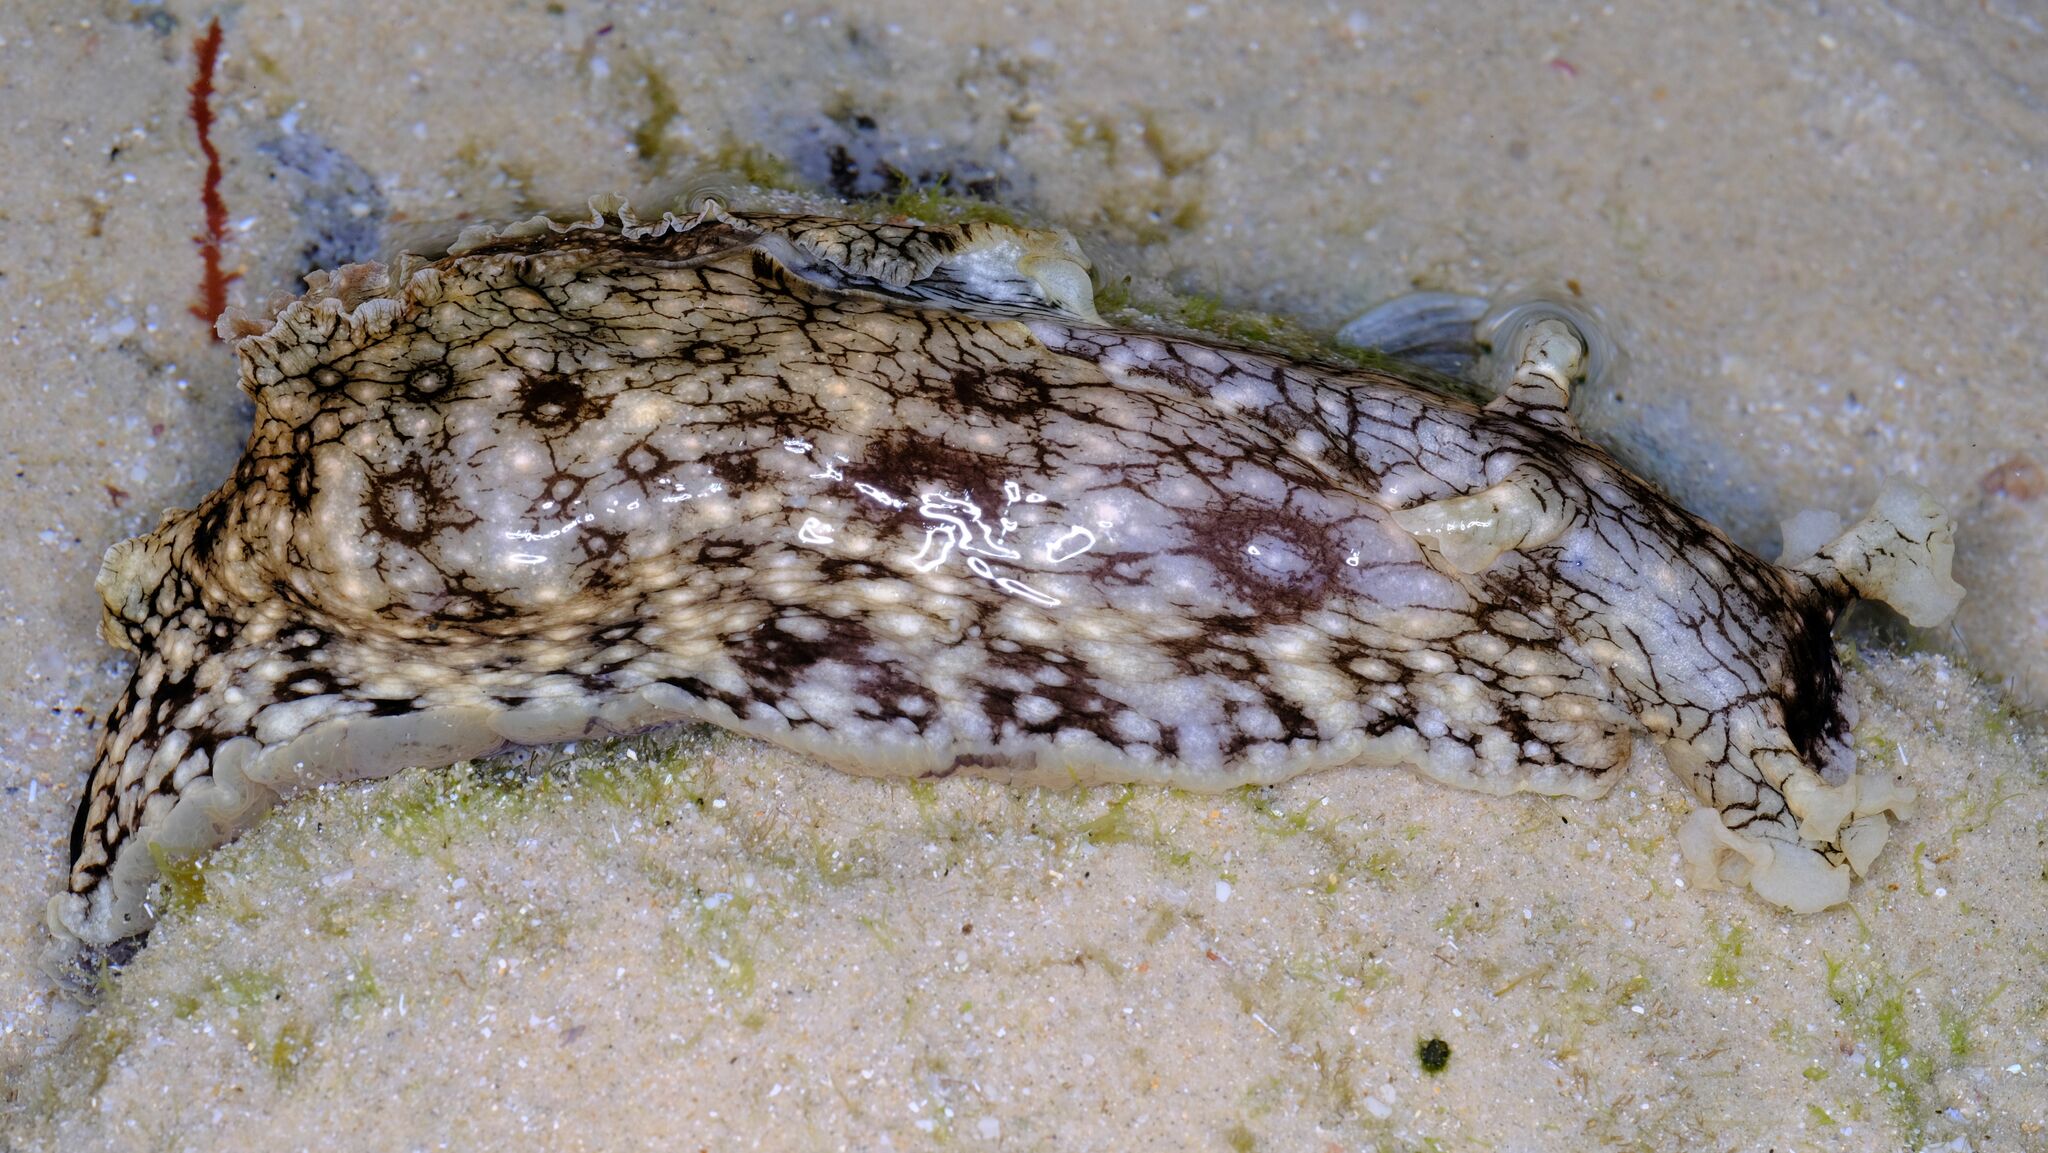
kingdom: Animalia
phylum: Mollusca
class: Gastropoda
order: Aplysiida
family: Aplysiidae
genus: Aplysia
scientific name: Aplysia argus
